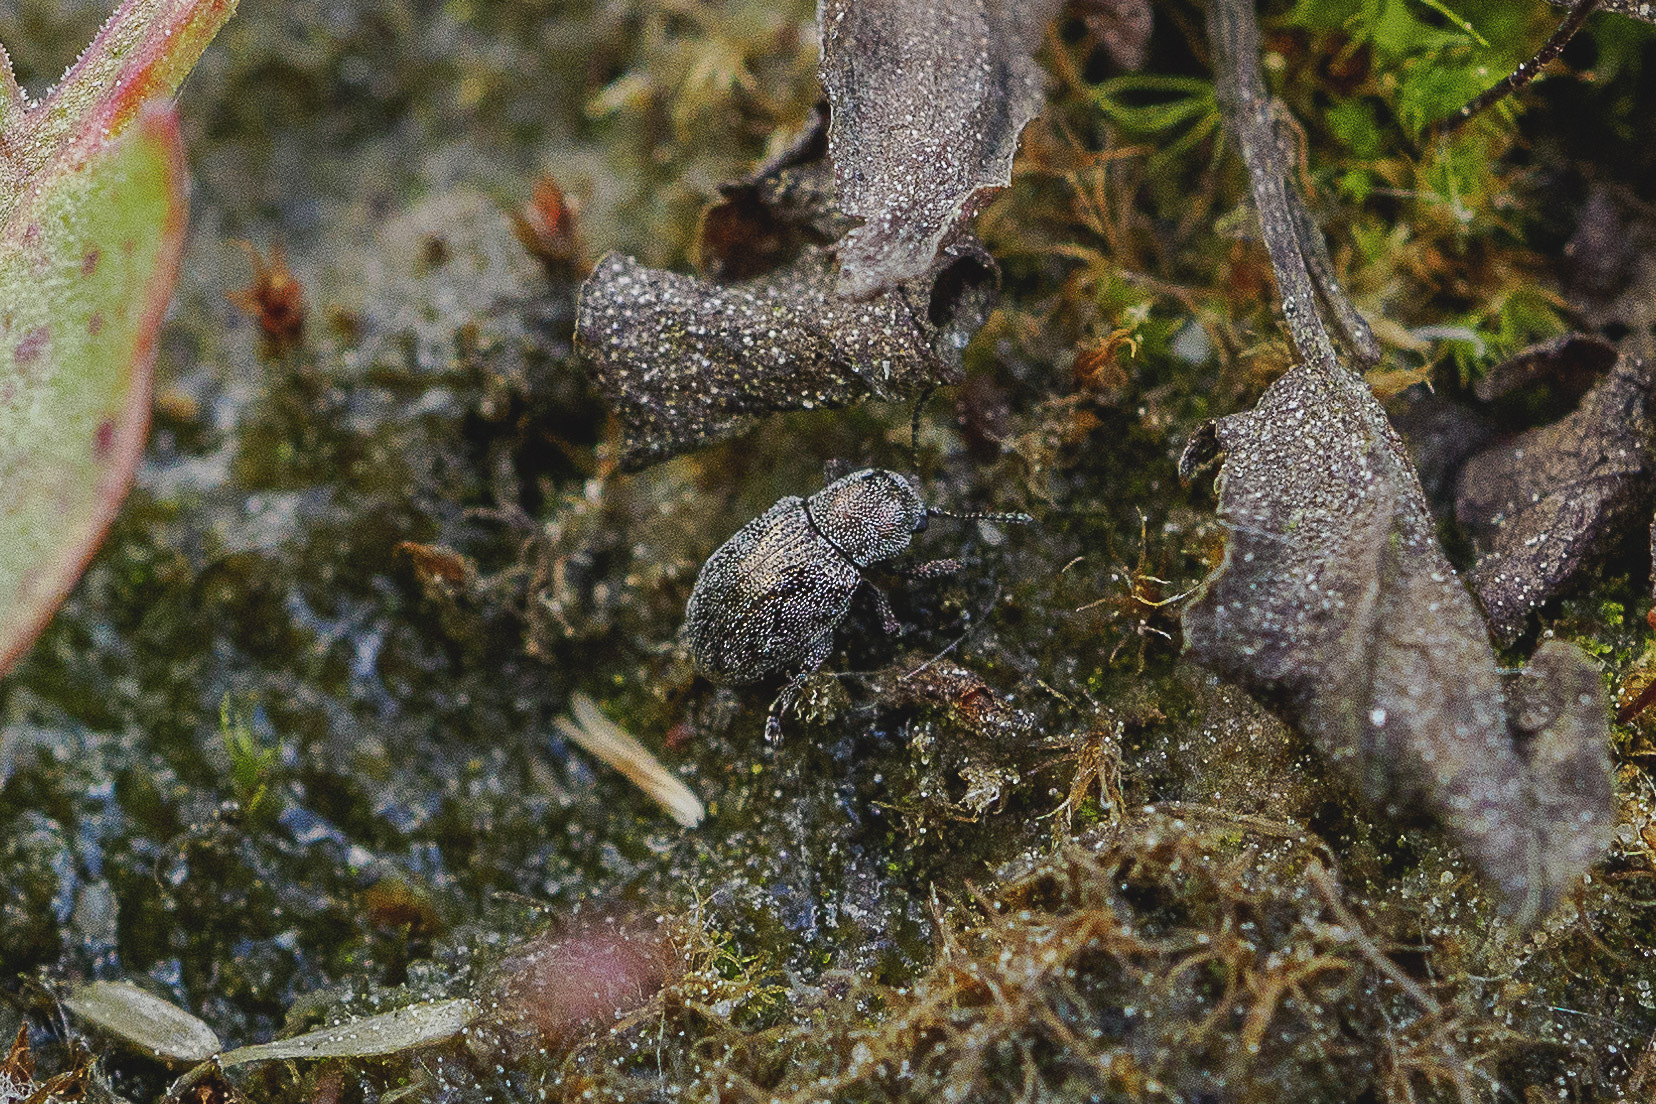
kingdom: Animalia
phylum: Arthropoda
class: Insecta
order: Coleoptera
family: Chrysomelidae
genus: Pachnephorus
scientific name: Pachnephorus pilosus
